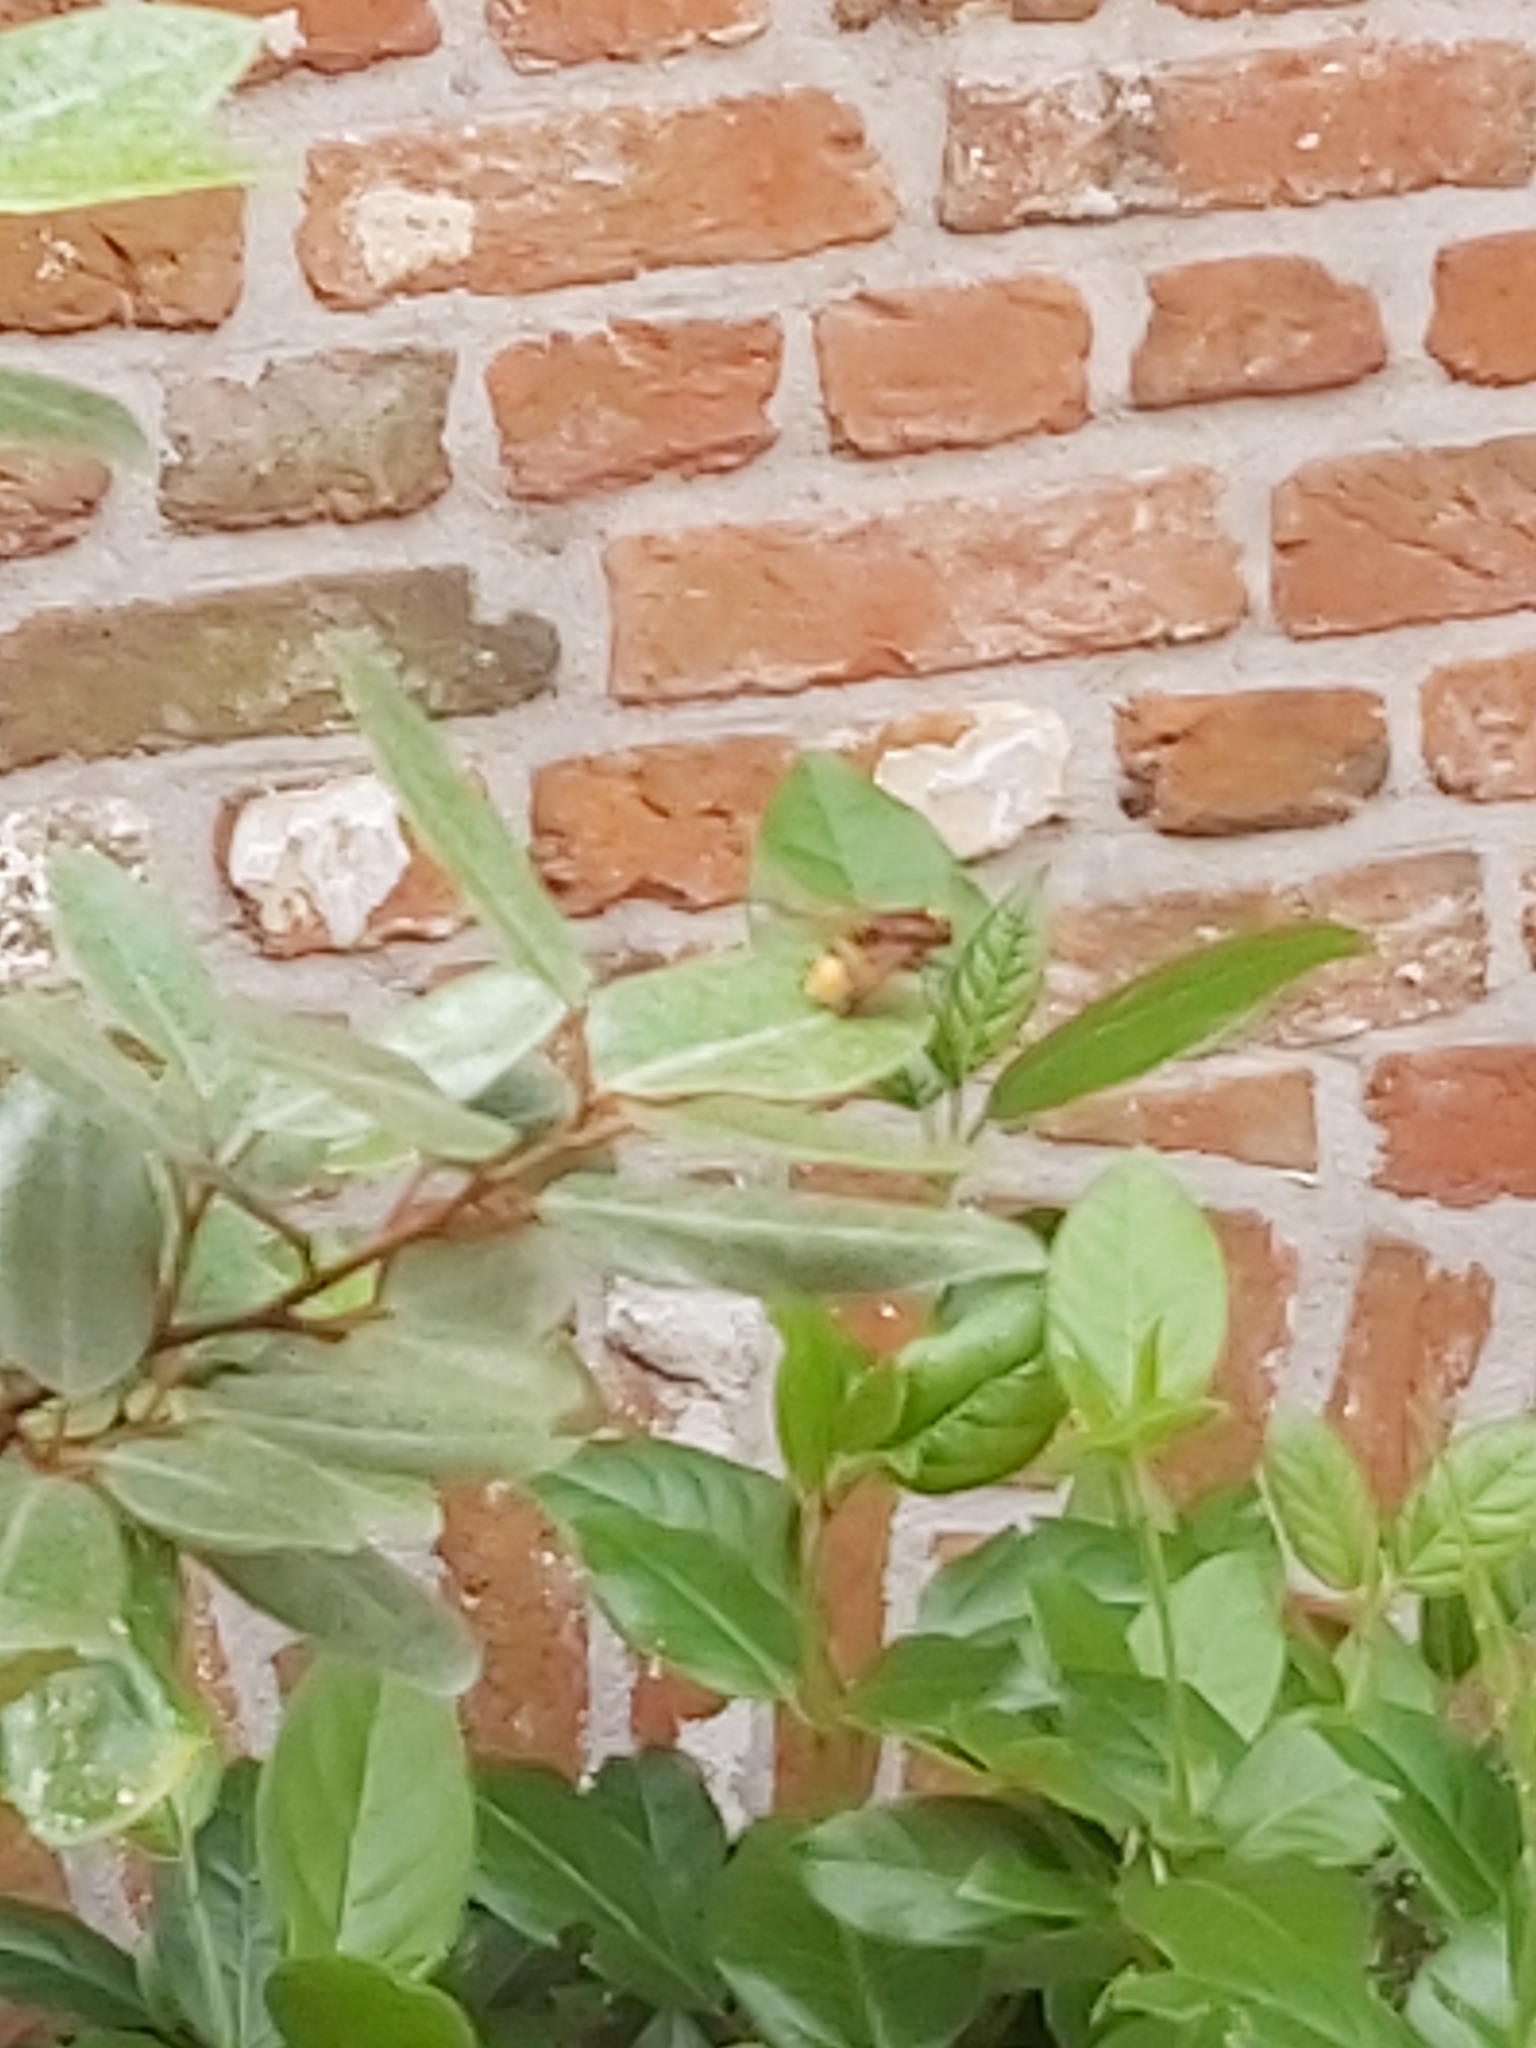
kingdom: Animalia
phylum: Arthropoda
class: Insecta
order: Hymenoptera
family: Vespidae
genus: Vespa
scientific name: Vespa crabro
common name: Hornet
